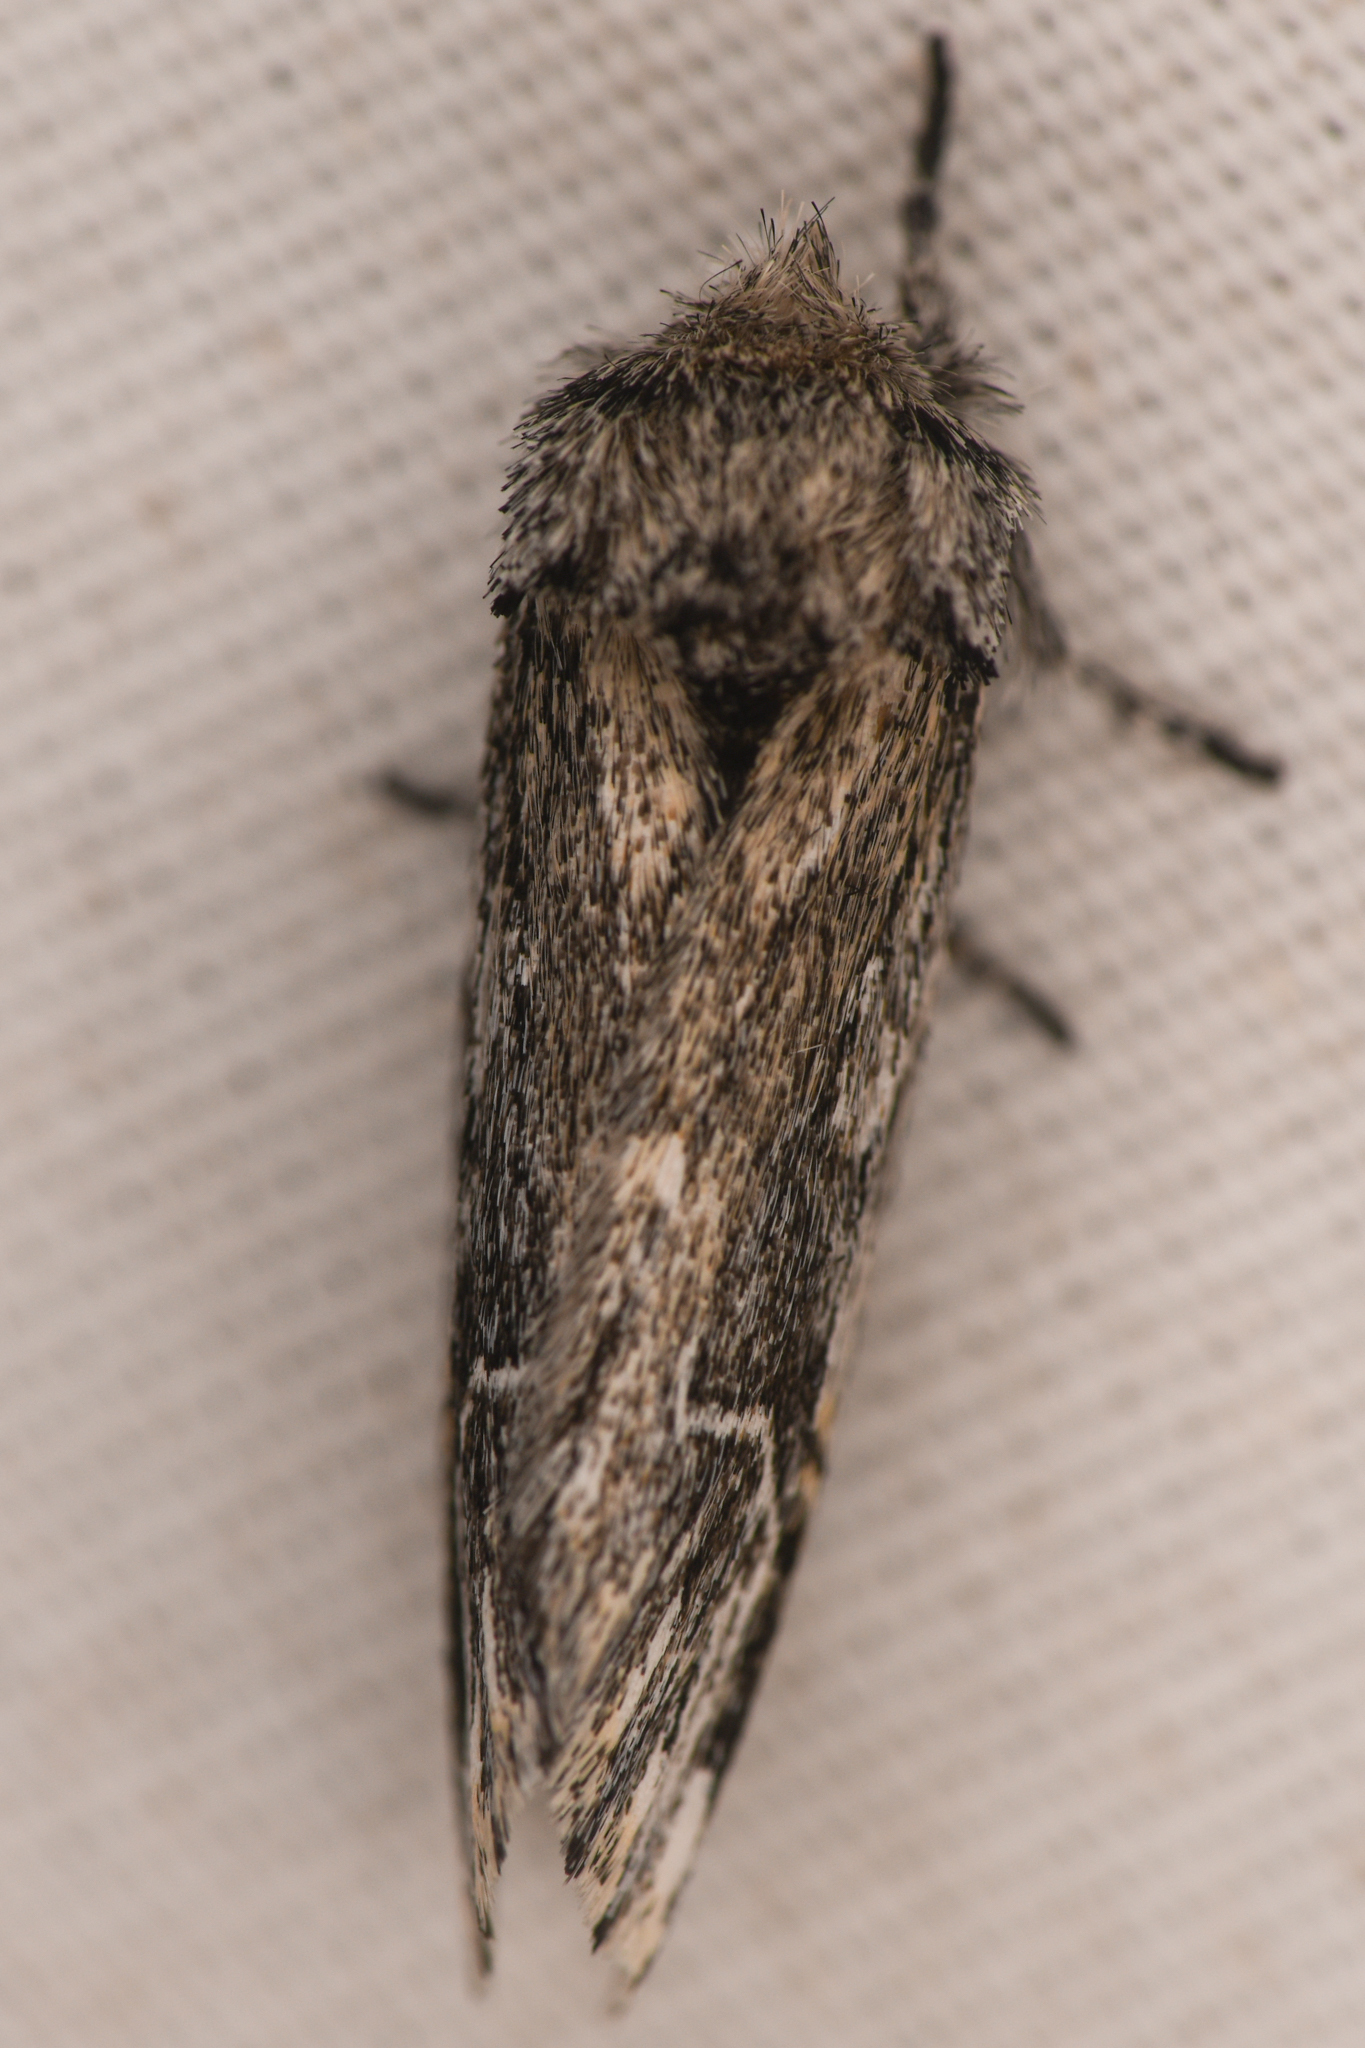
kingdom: Animalia
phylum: Arthropoda
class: Insecta
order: Lepidoptera
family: Notodontidae
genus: Ursia
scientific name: Ursia noctuiformis
